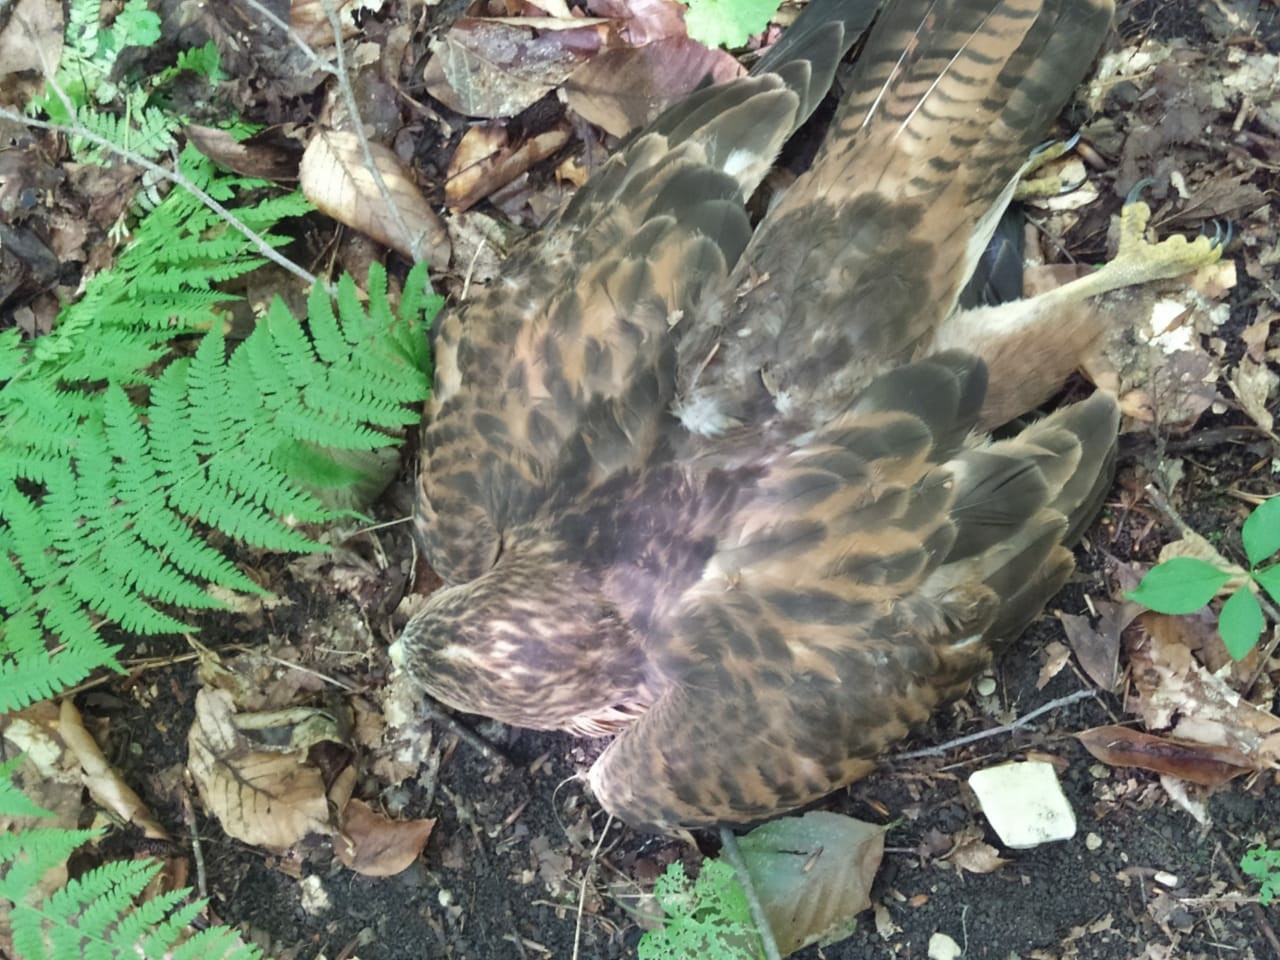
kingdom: Animalia
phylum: Chordata
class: Aves
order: Accipitriformes
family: Accipitridae
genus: Buteo
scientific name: Buteo buteo
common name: Common buzzard
